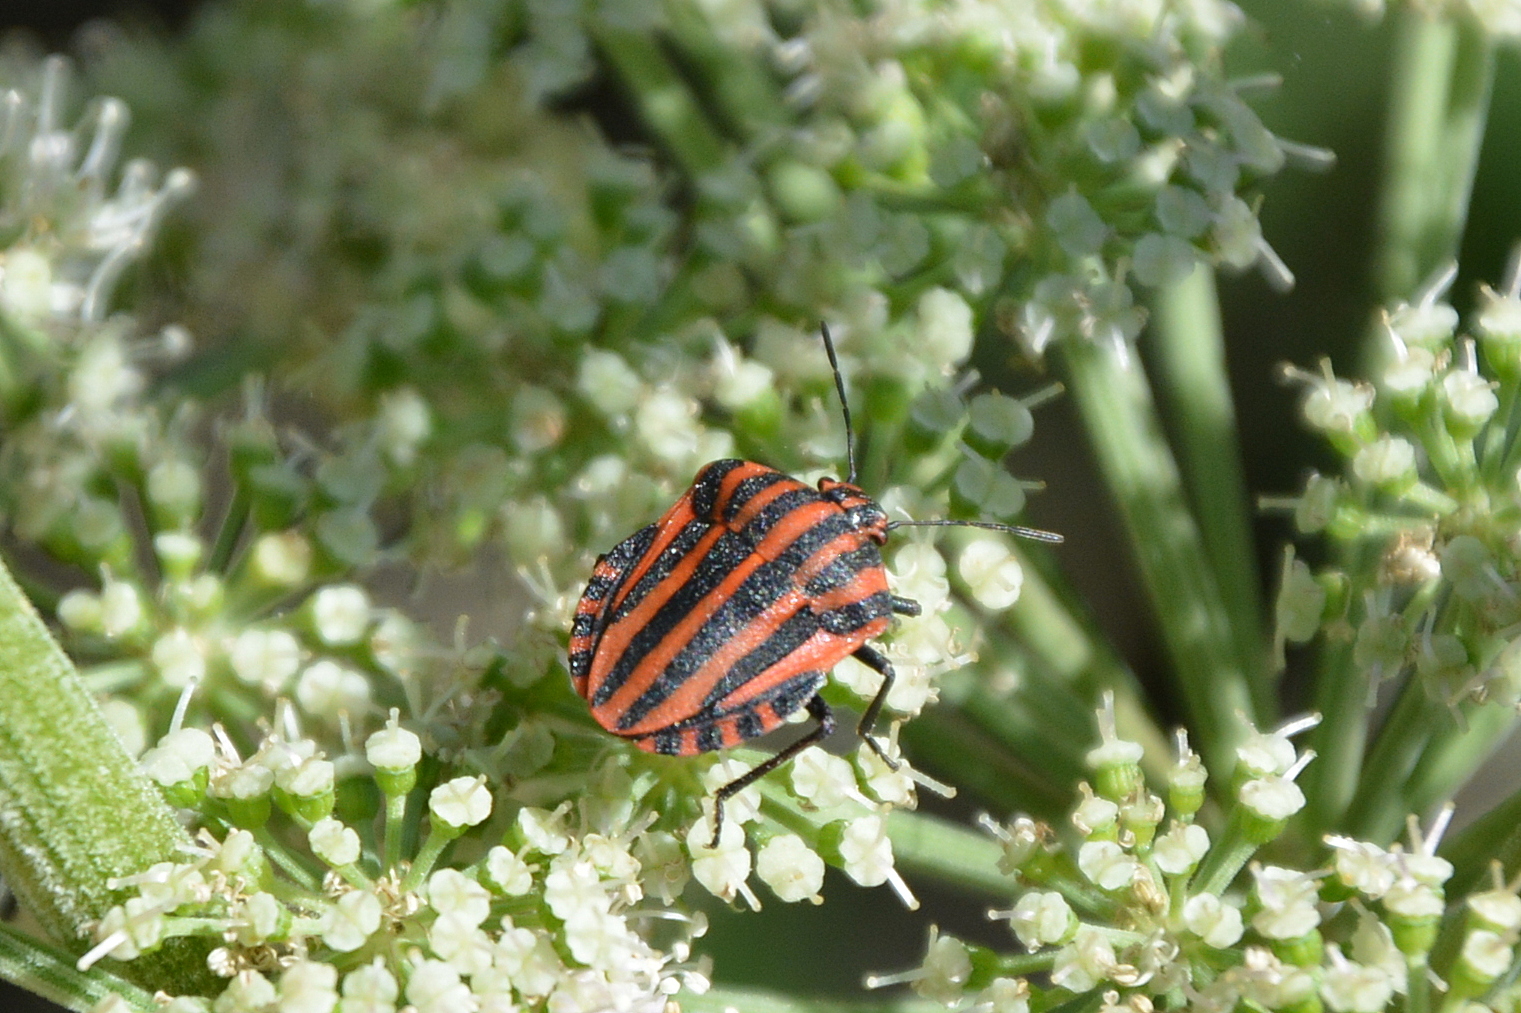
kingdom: Animalia
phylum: Arthropoda
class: Insecta
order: Hemiptera
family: Pentatomidae
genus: Graphosoma
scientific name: Graphosoma italicum
